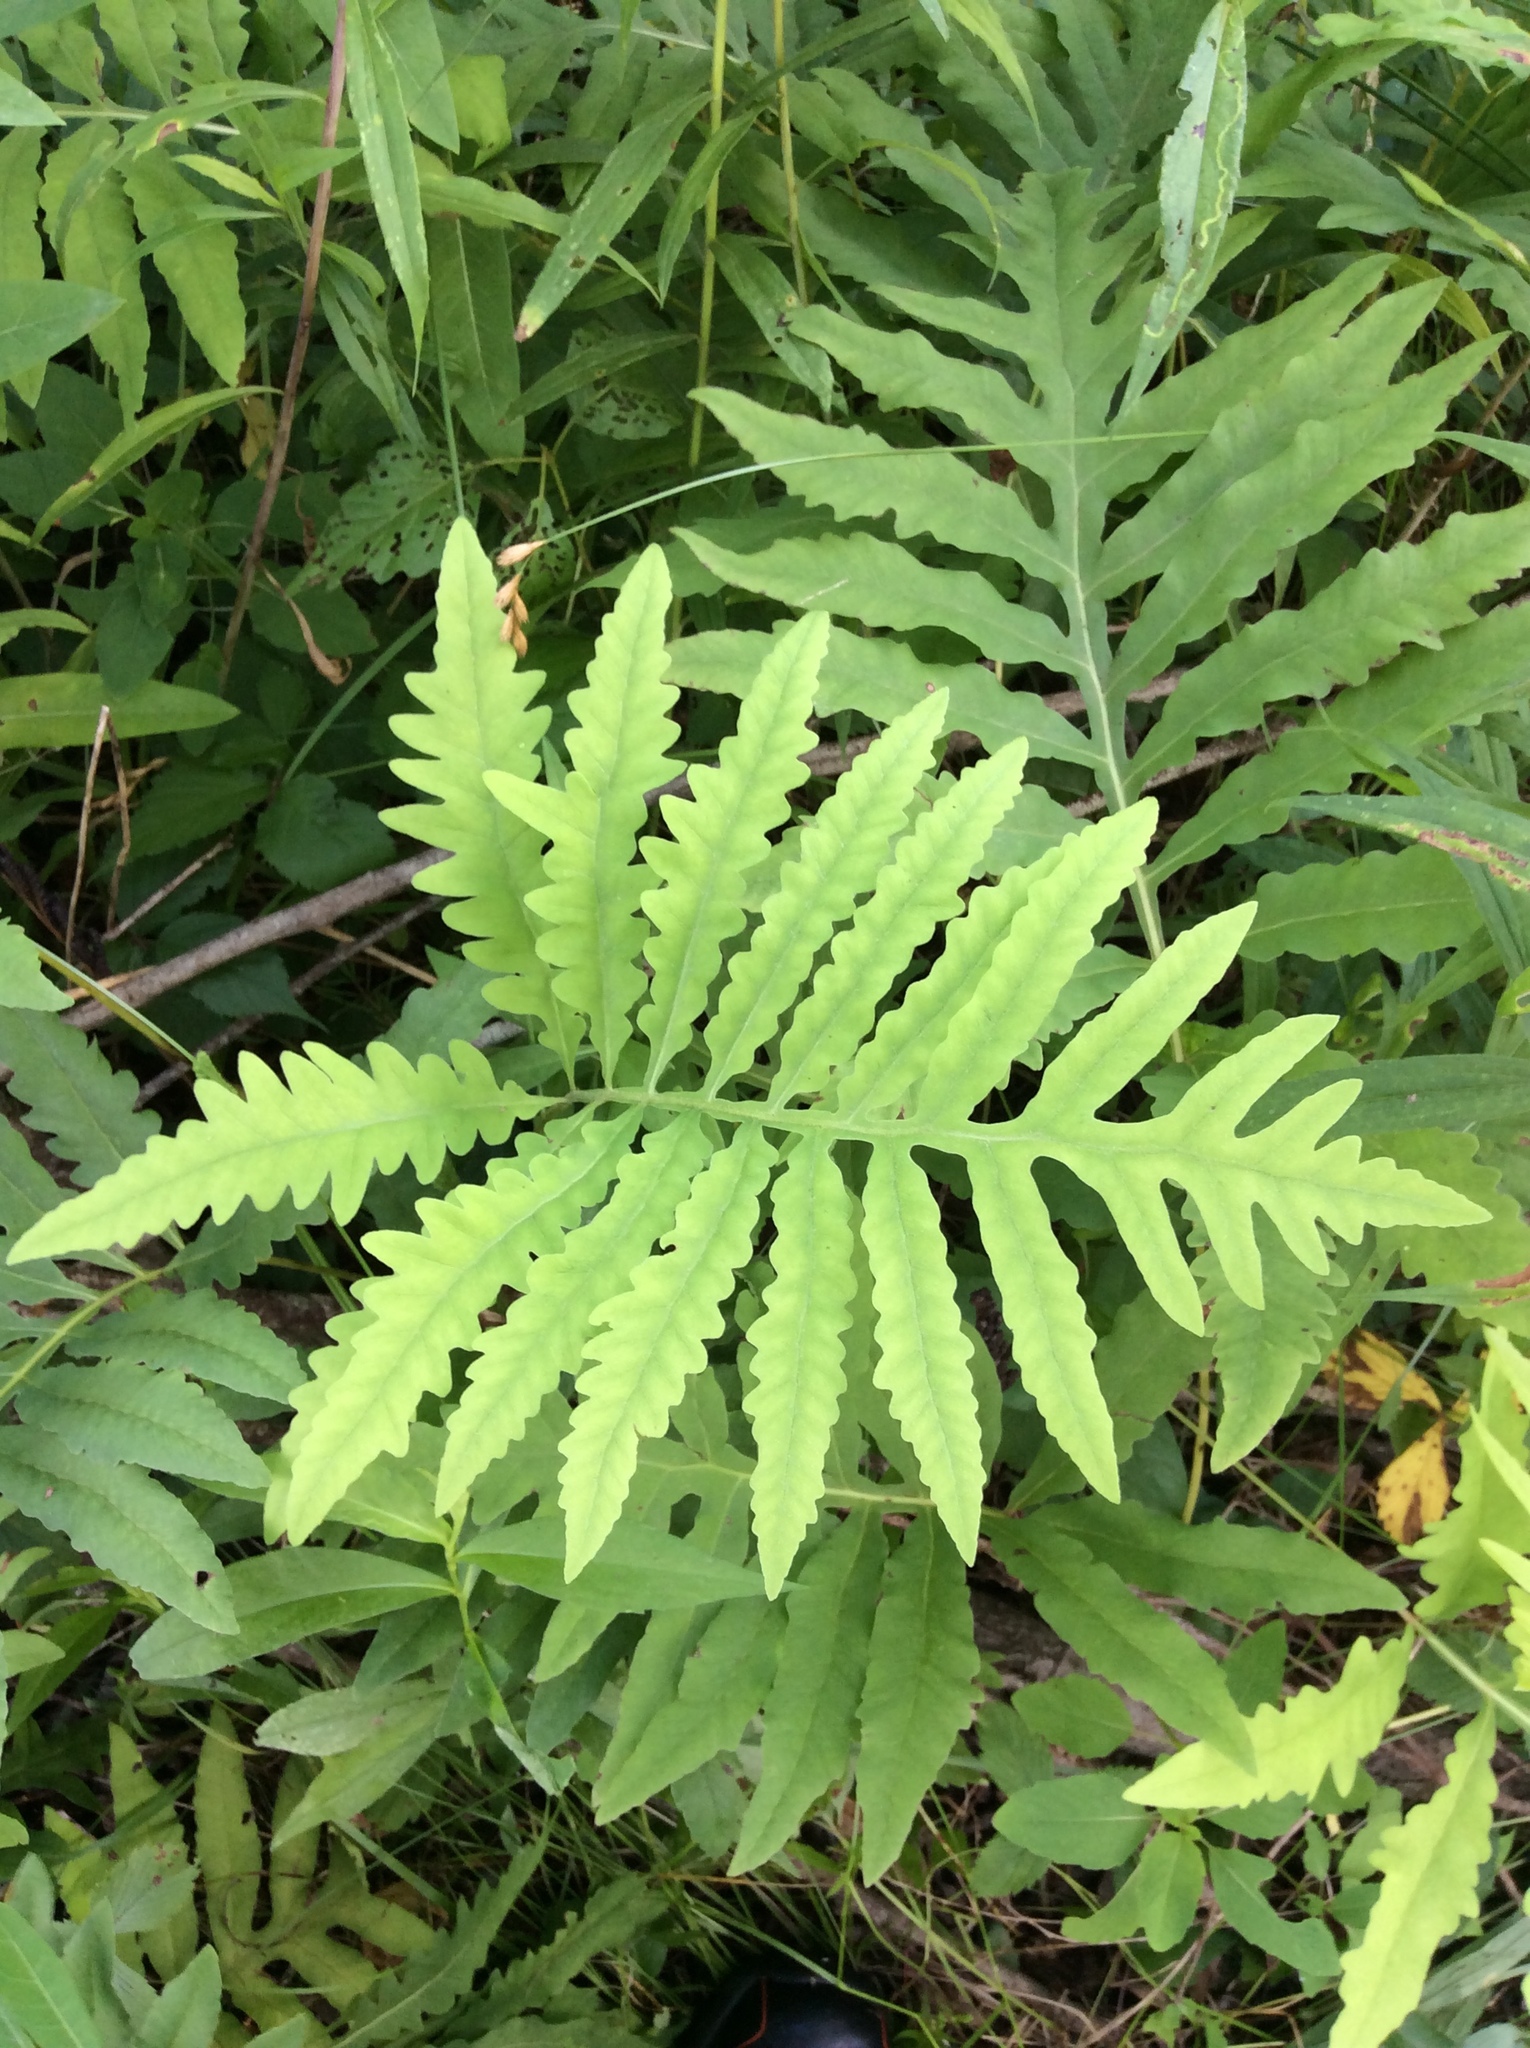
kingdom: Plantae
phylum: Tracheophyta
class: Polypodiopsida
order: Polypodiales
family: Onocleaceae
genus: Onoclea
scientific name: Onoclea sensibilis
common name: Sensitive fern
